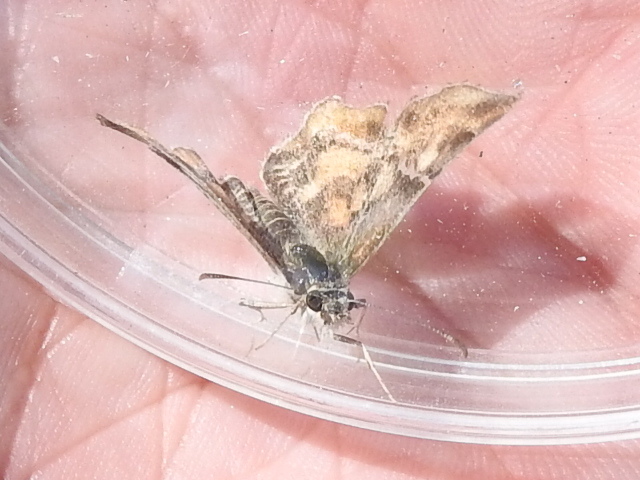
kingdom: Animalia
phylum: Arthropoda
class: Insecta
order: Lepidoptera
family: Hesperiidae
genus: Systasea
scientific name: Systasea pulverulenta
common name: Texas powdered skipper
